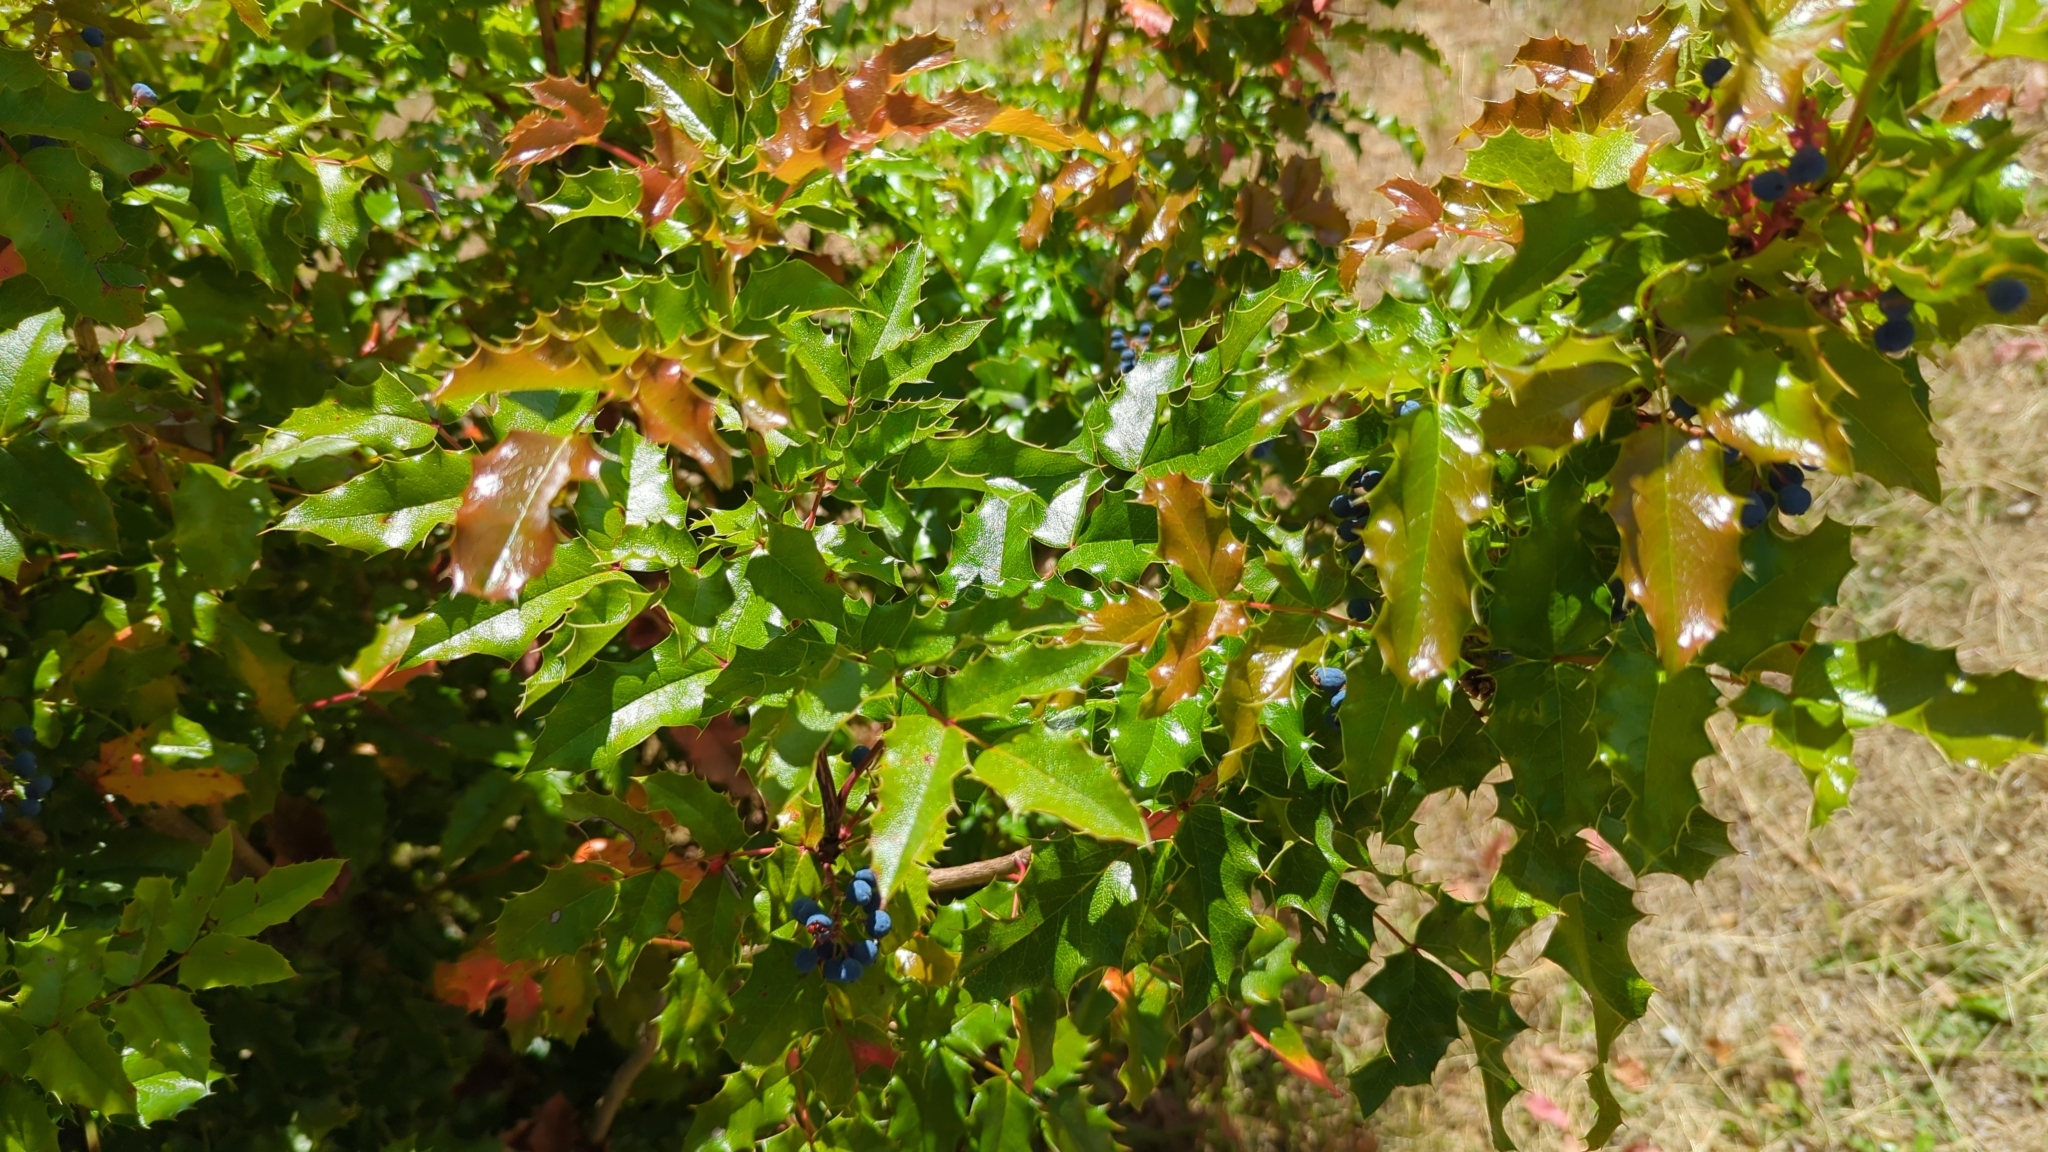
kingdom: Plantae
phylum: Tracheophyta
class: Magnoliopsida
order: Ranunculales
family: Berberidaceae
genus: Mahonia
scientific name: Mahonia aquifolium
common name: Oregon-grape
